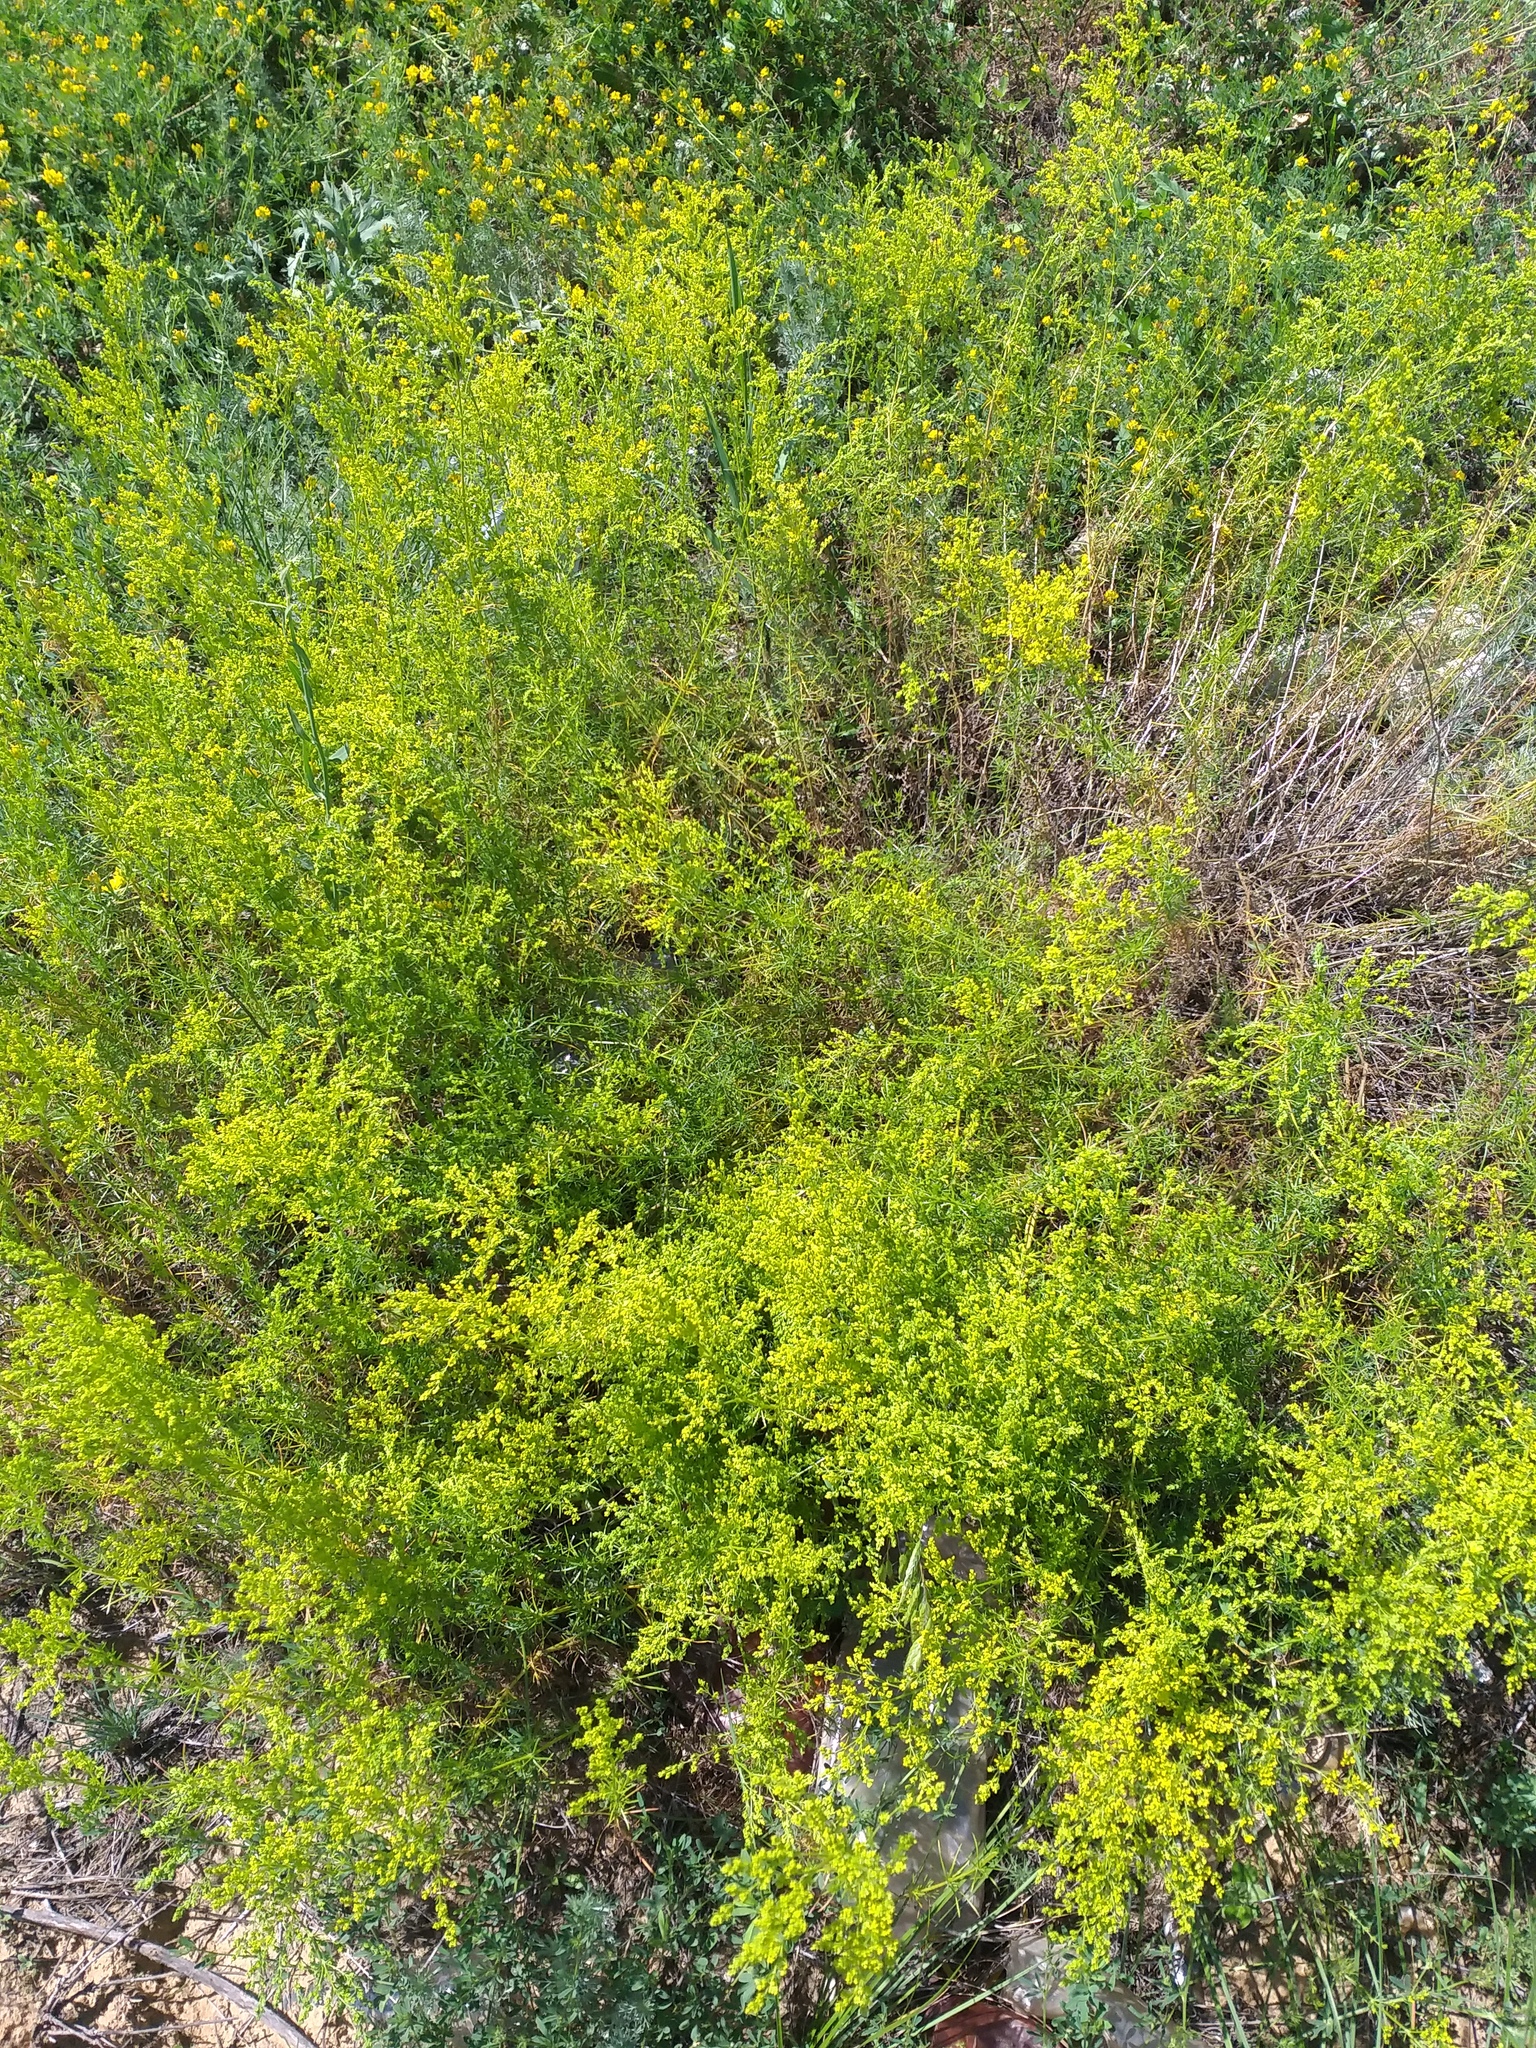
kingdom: Plantae
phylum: Tracheophyta
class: Magnoliopsida
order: Gentianales
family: Rubiaceae
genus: Galium
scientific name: Galium verum
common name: Lady's bedstraw
